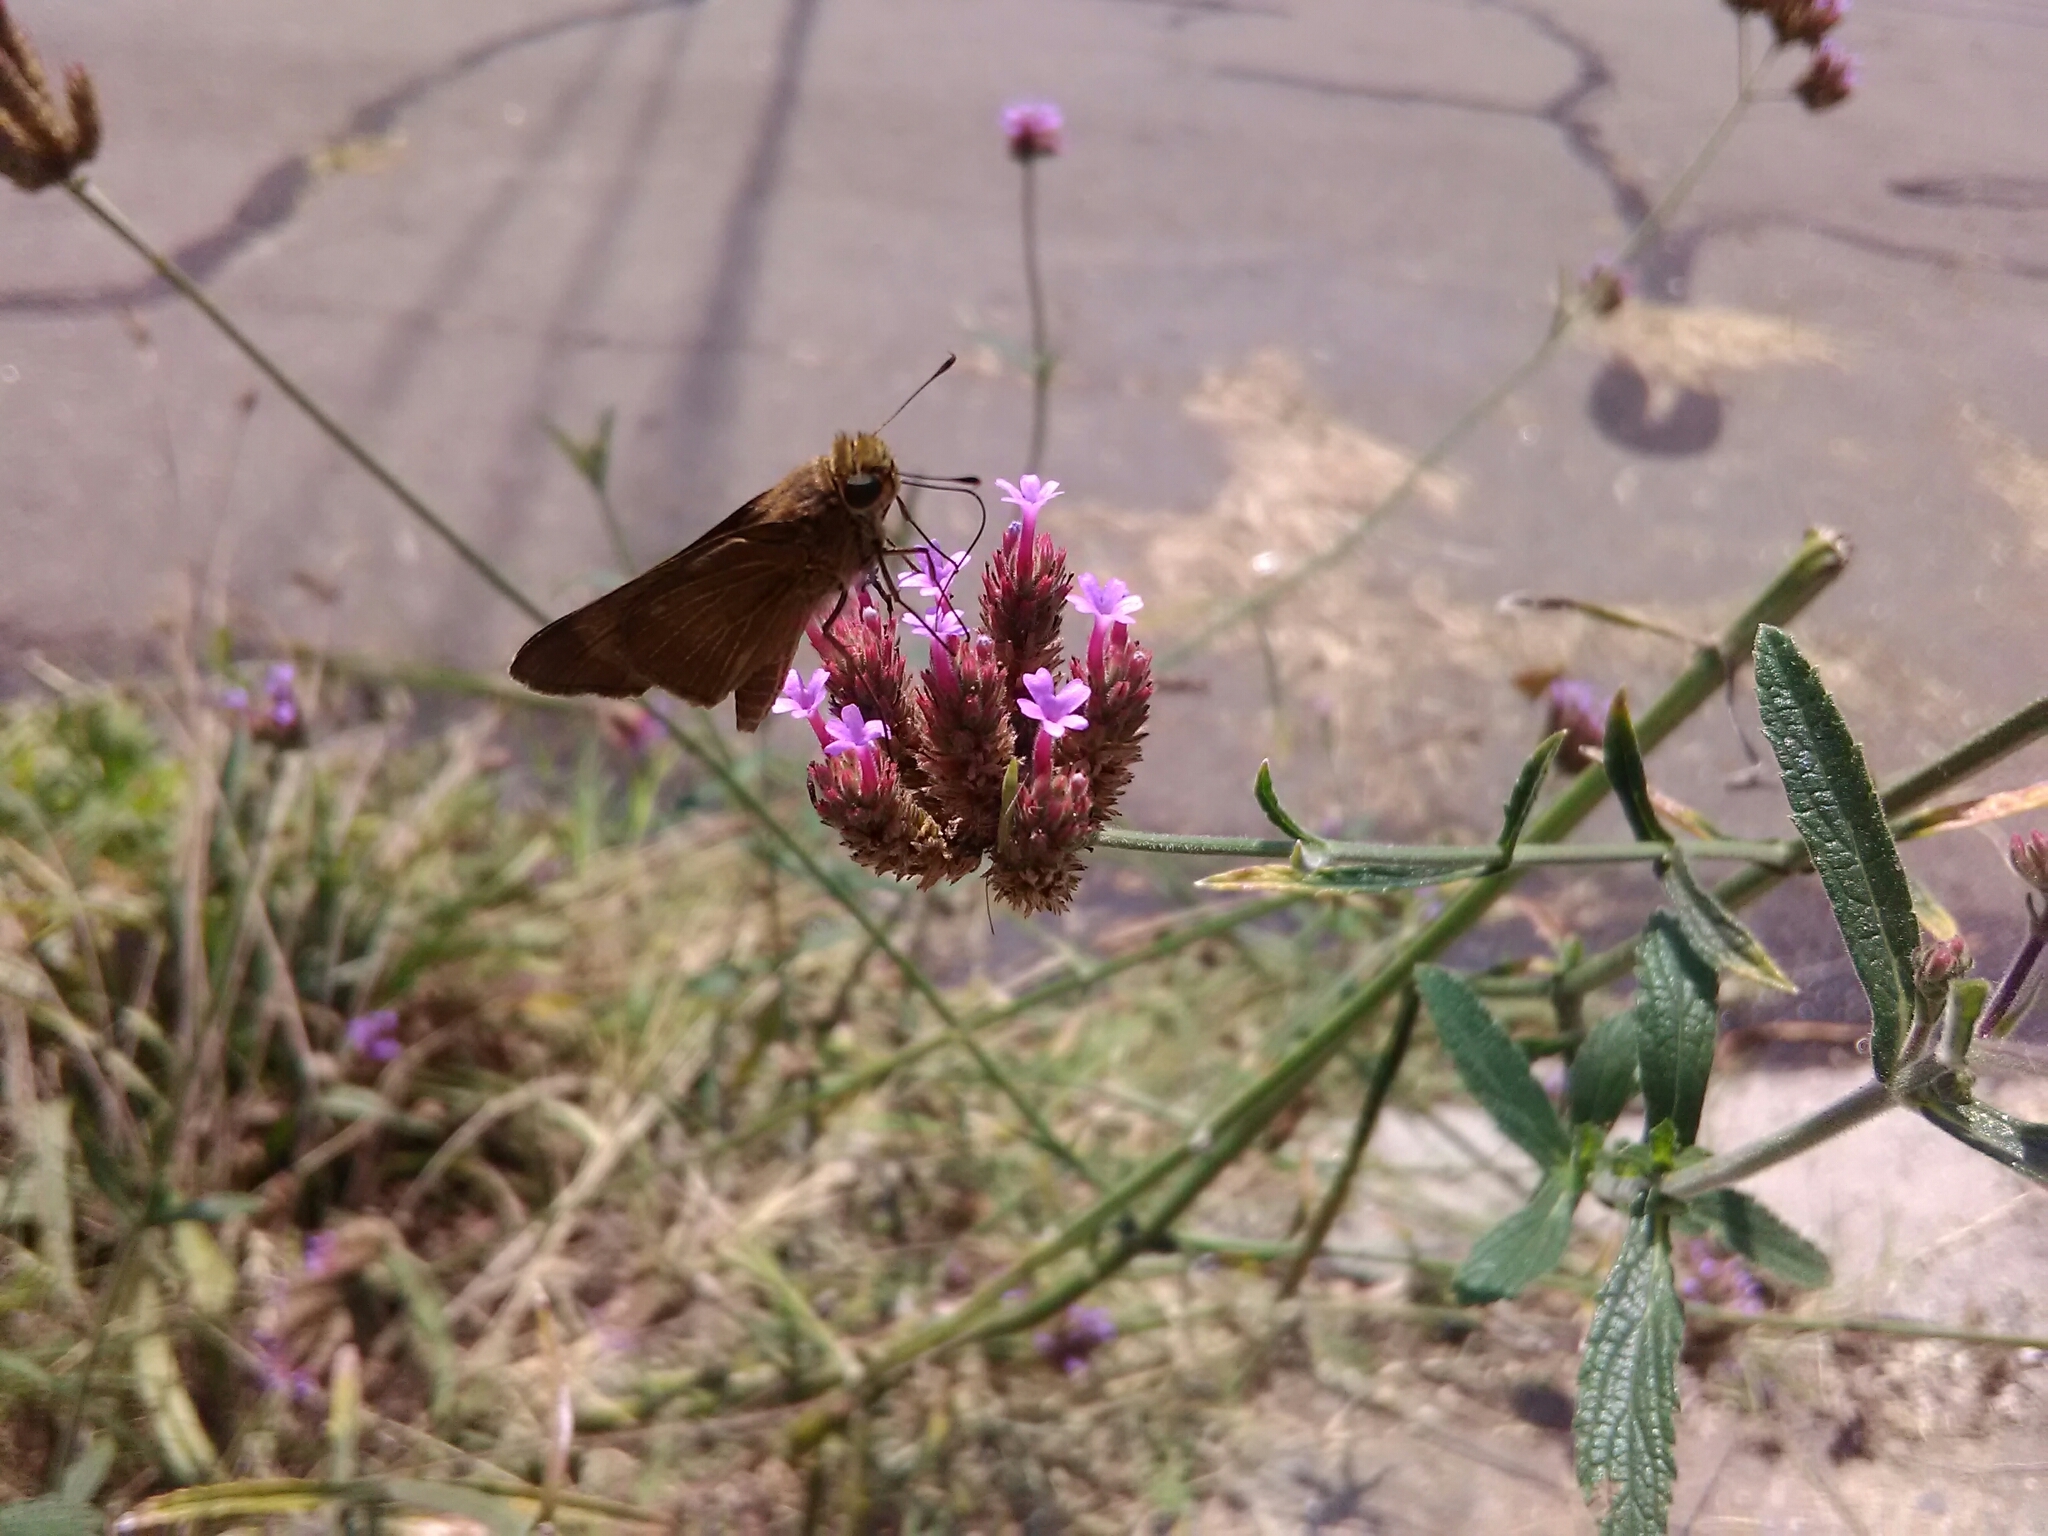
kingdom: Animalia
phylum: Arthropoda
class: Insecta
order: Lepidoptera
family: Hesperiidae
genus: Panoquina
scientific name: Panoquina ocola
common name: Ocola skipper
